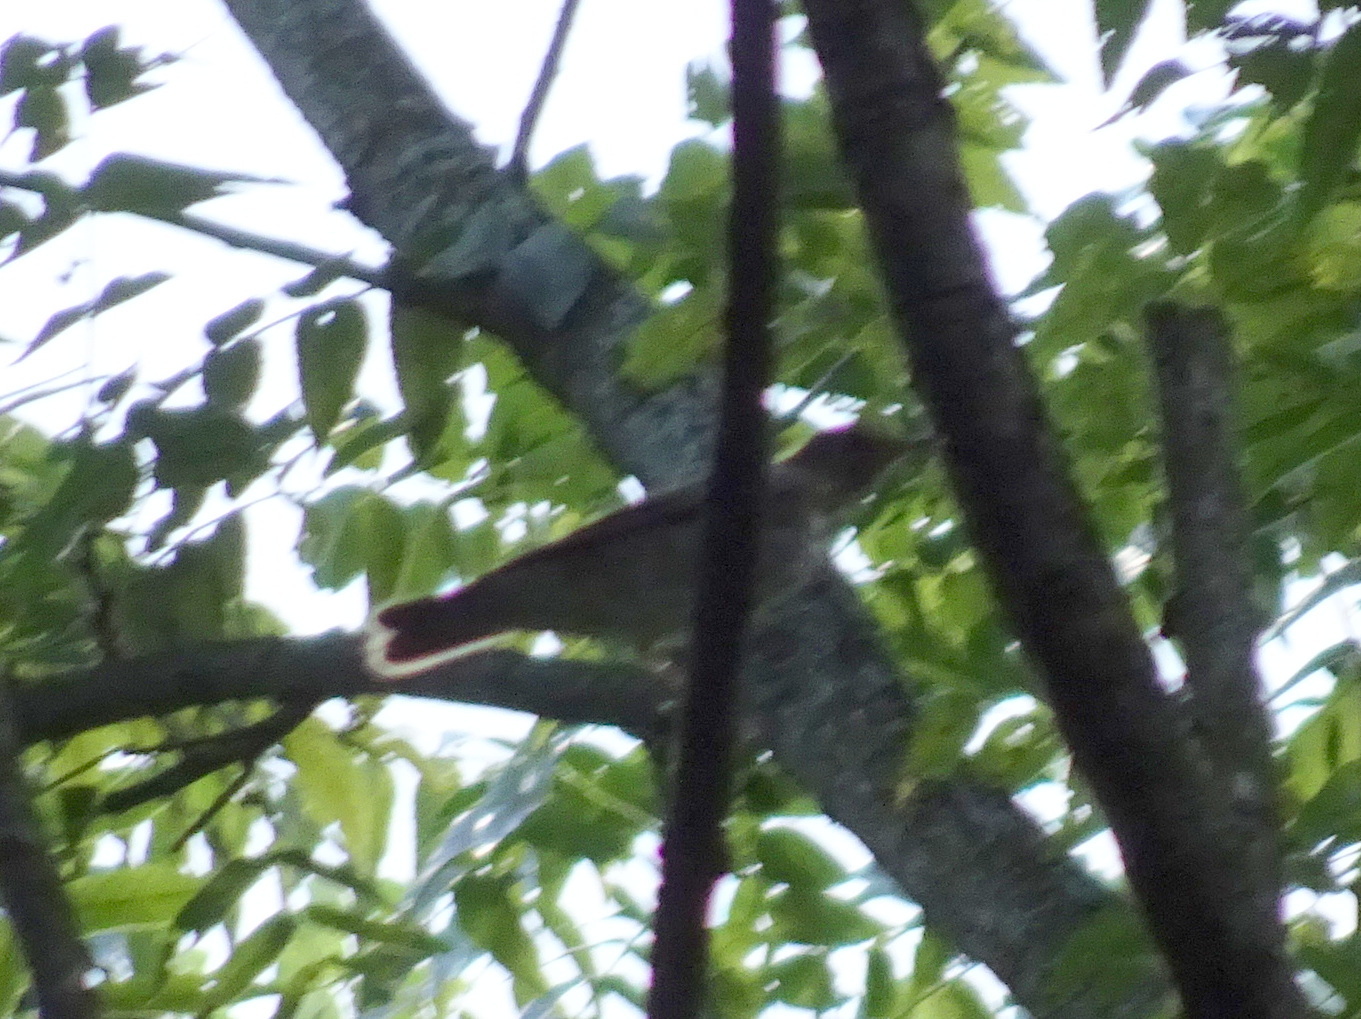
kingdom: Animalia
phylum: Chordata
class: Aves
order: Passeriformes
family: Turdidae
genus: Catharus
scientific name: Catharus
